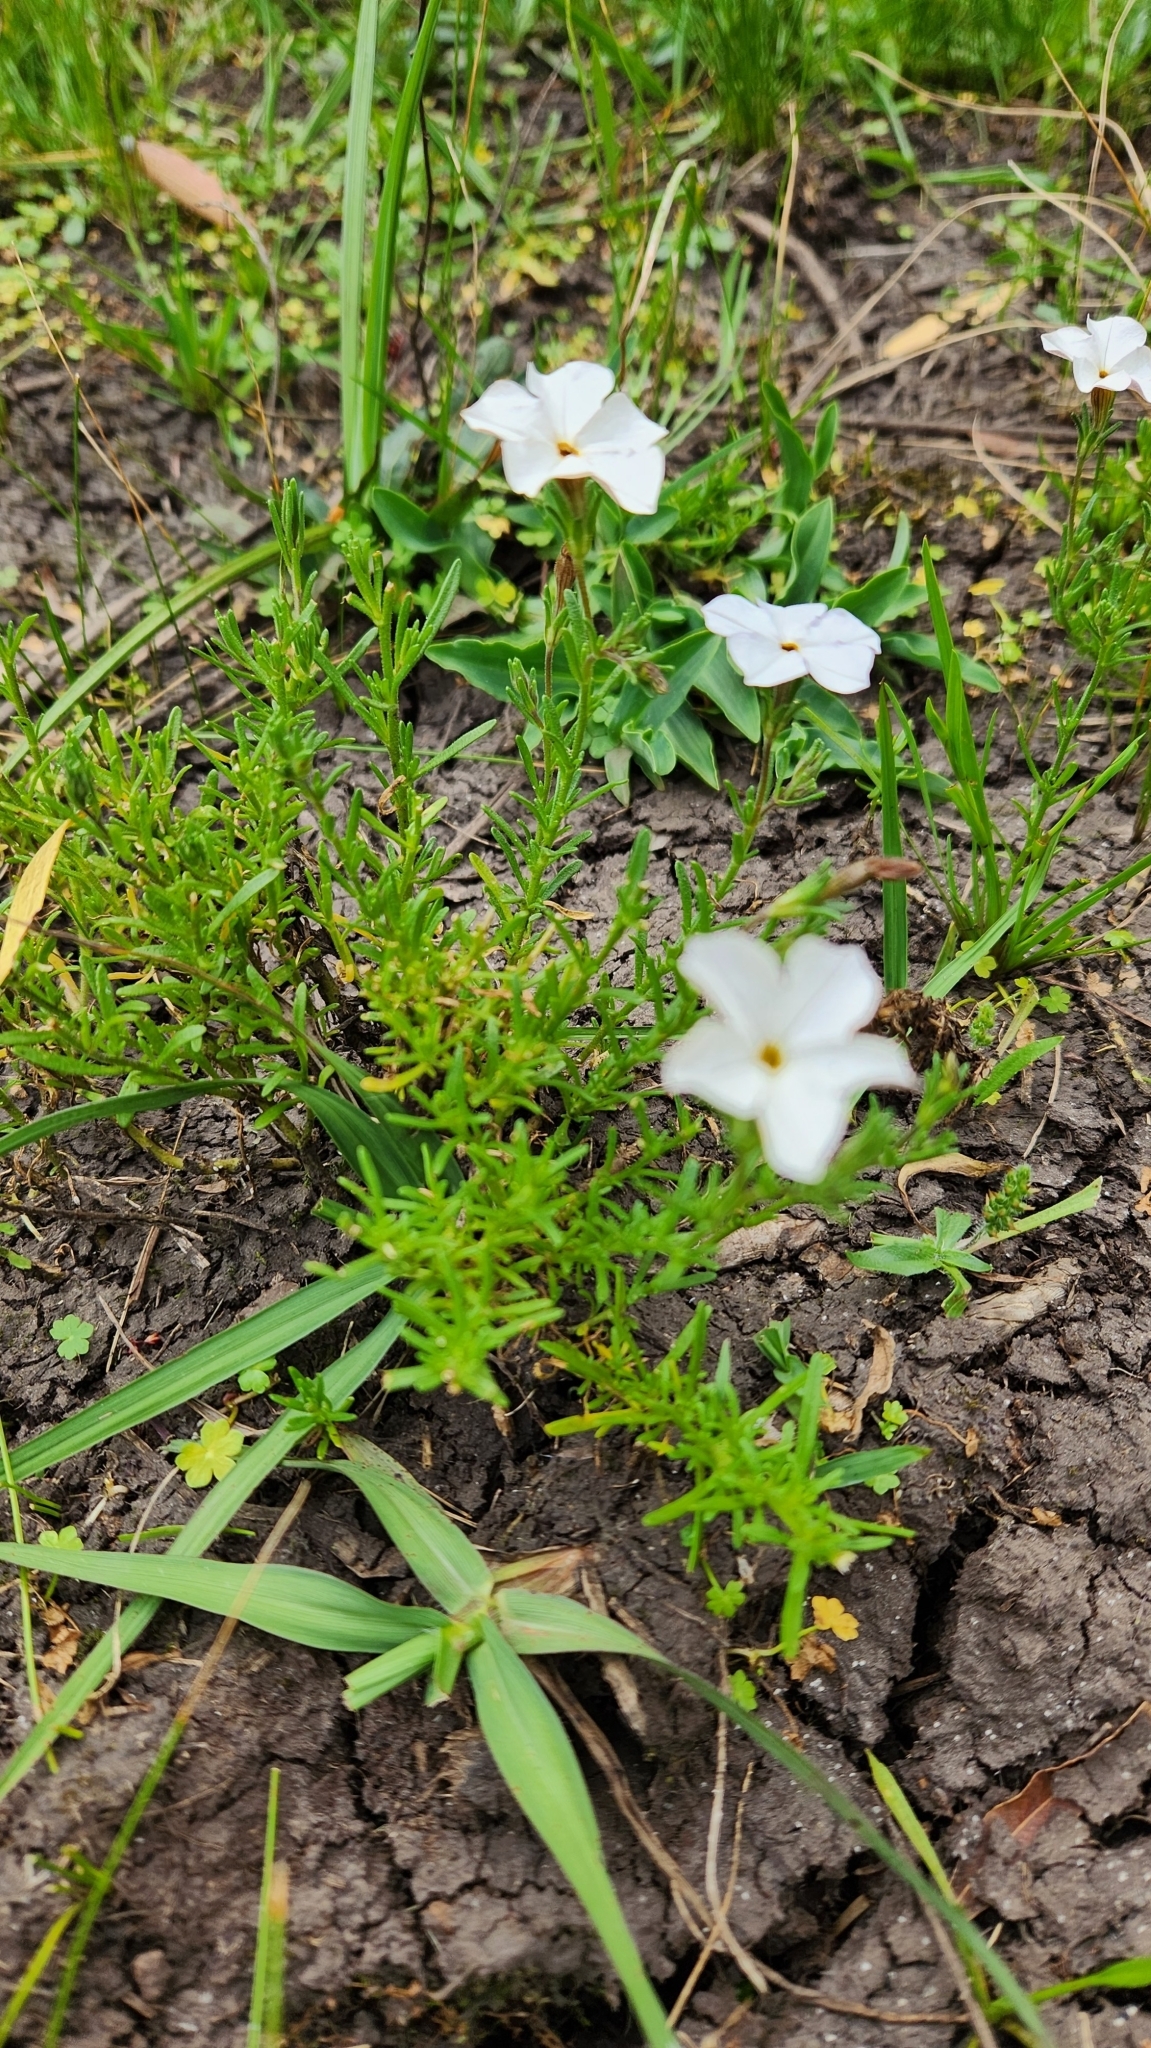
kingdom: Plantae
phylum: Tracheophyta
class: Magnoliopsida
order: Solanales
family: Solanaceae
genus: Calibrachoa
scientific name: Calibrachoa pygmea
